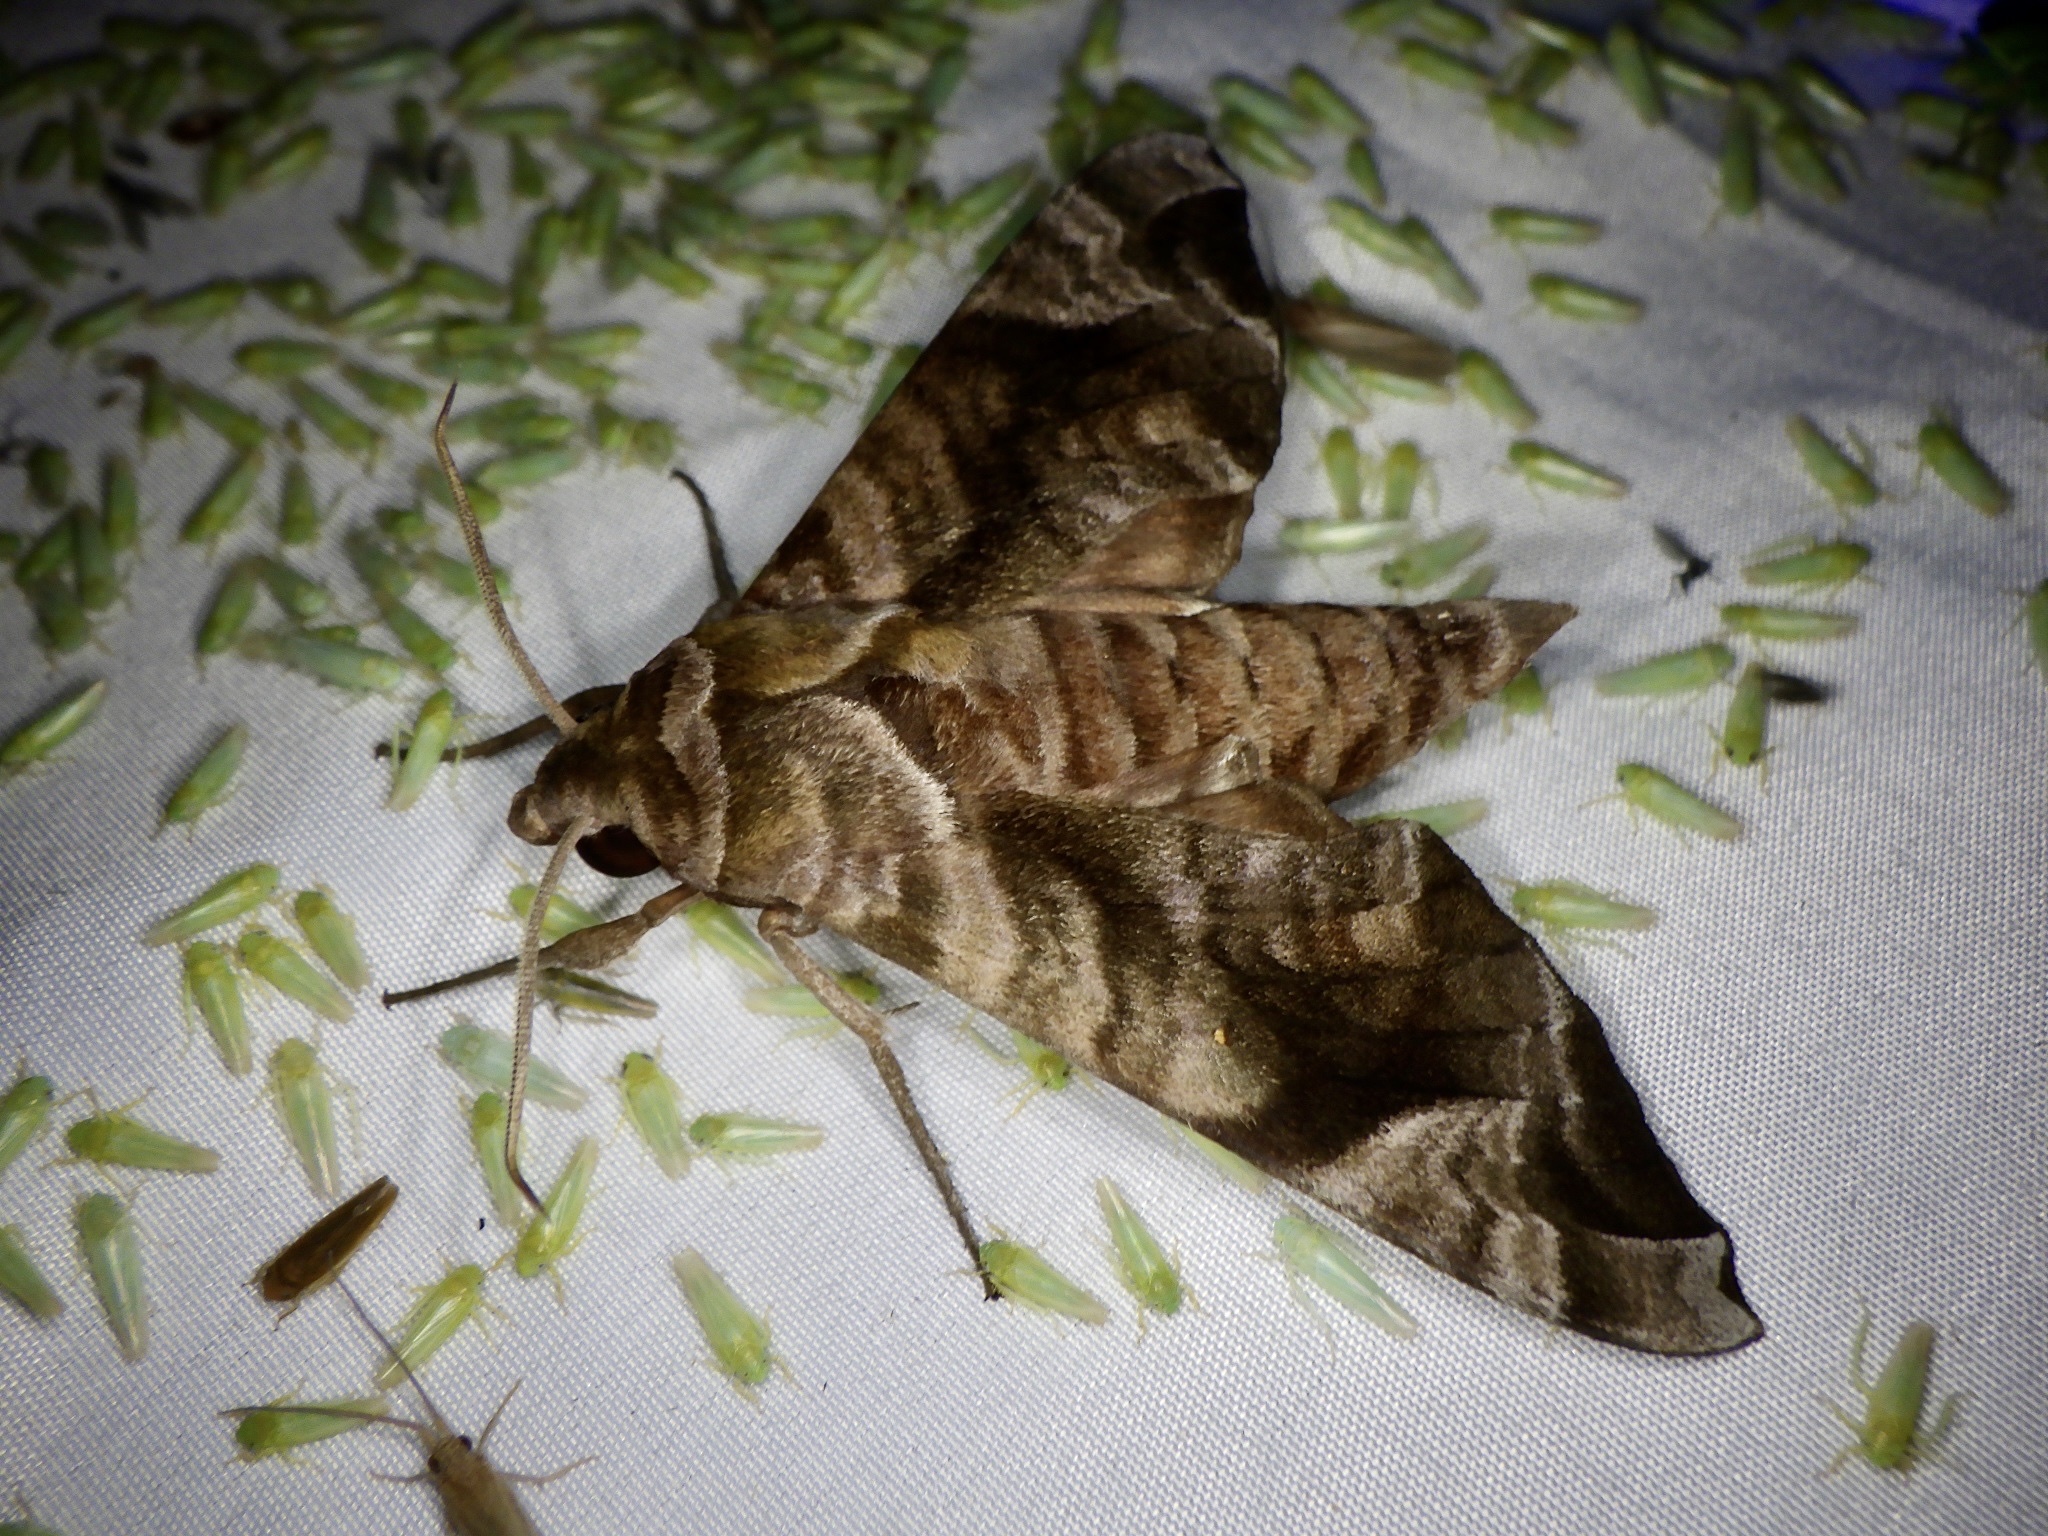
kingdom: Animalia
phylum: Arthropoda
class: Insecta
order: Lepidoptera
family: Sphingidae
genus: Acosmeryx
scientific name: Acosmeryx castanea
